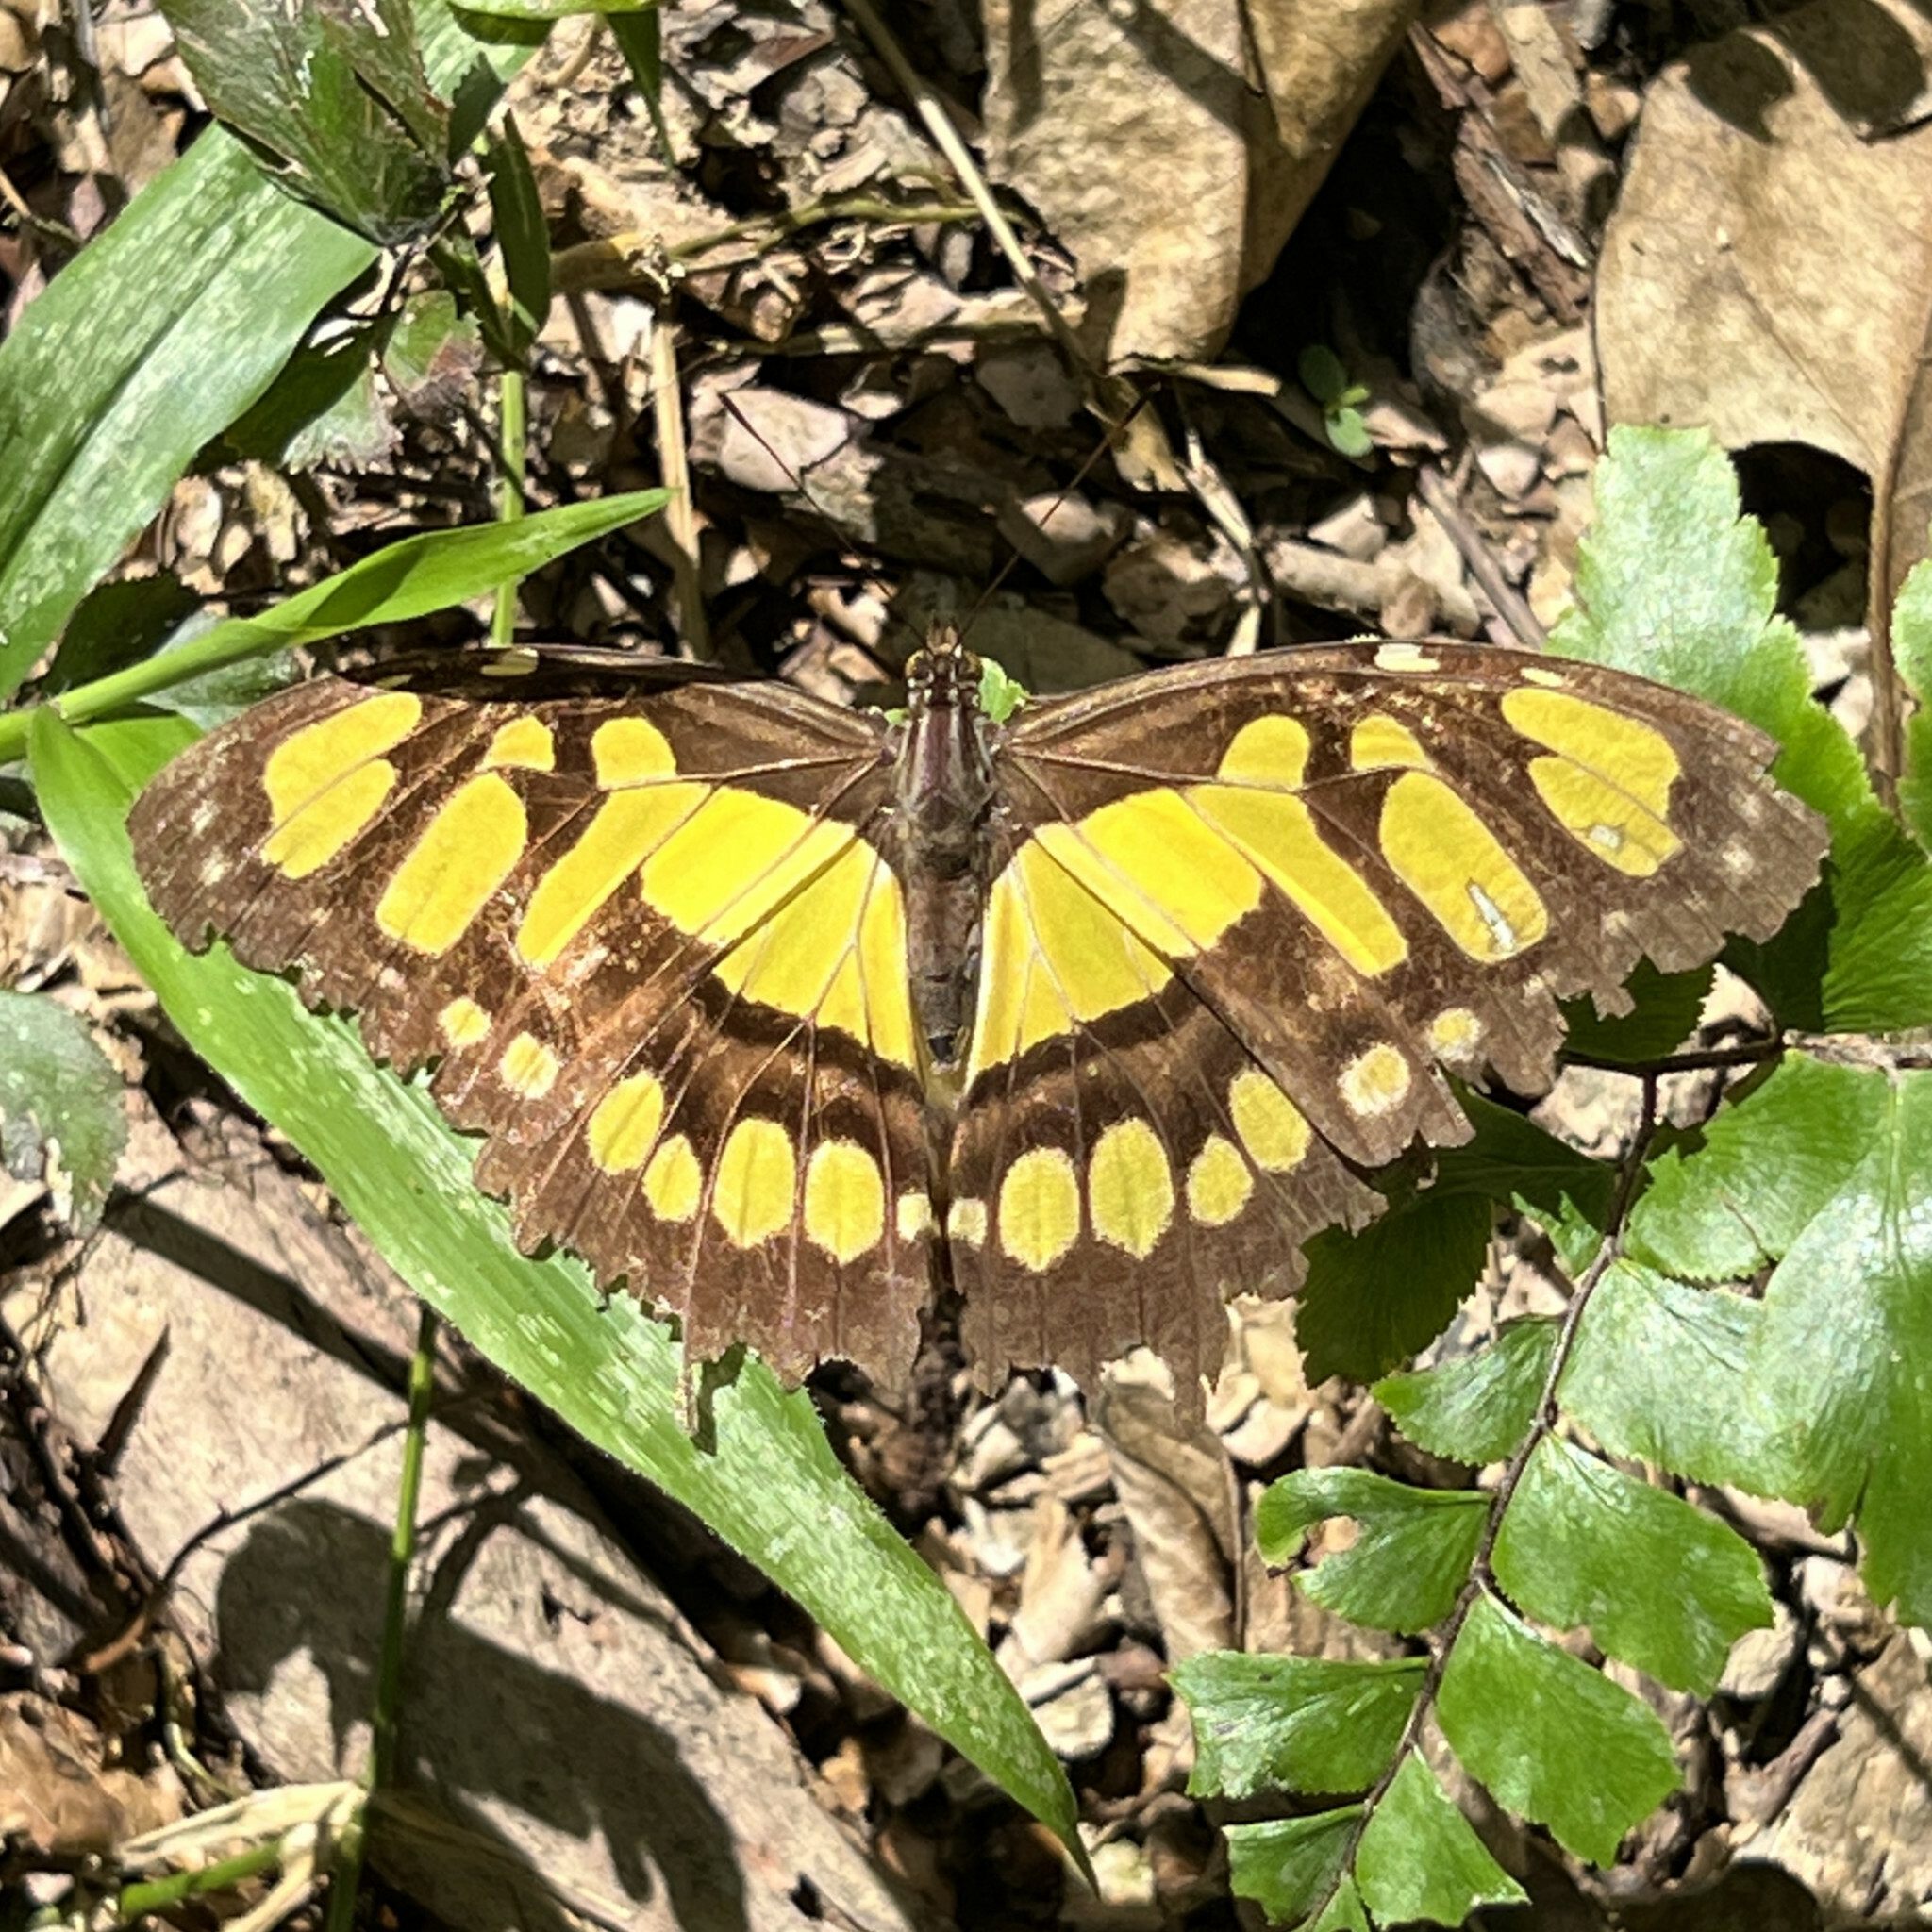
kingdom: Animalia
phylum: Arthropoda
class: Insecta
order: Lepidoptera
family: Nymphalidae
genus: Siproeta
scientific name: Siproeta stelenes
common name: Malachite
